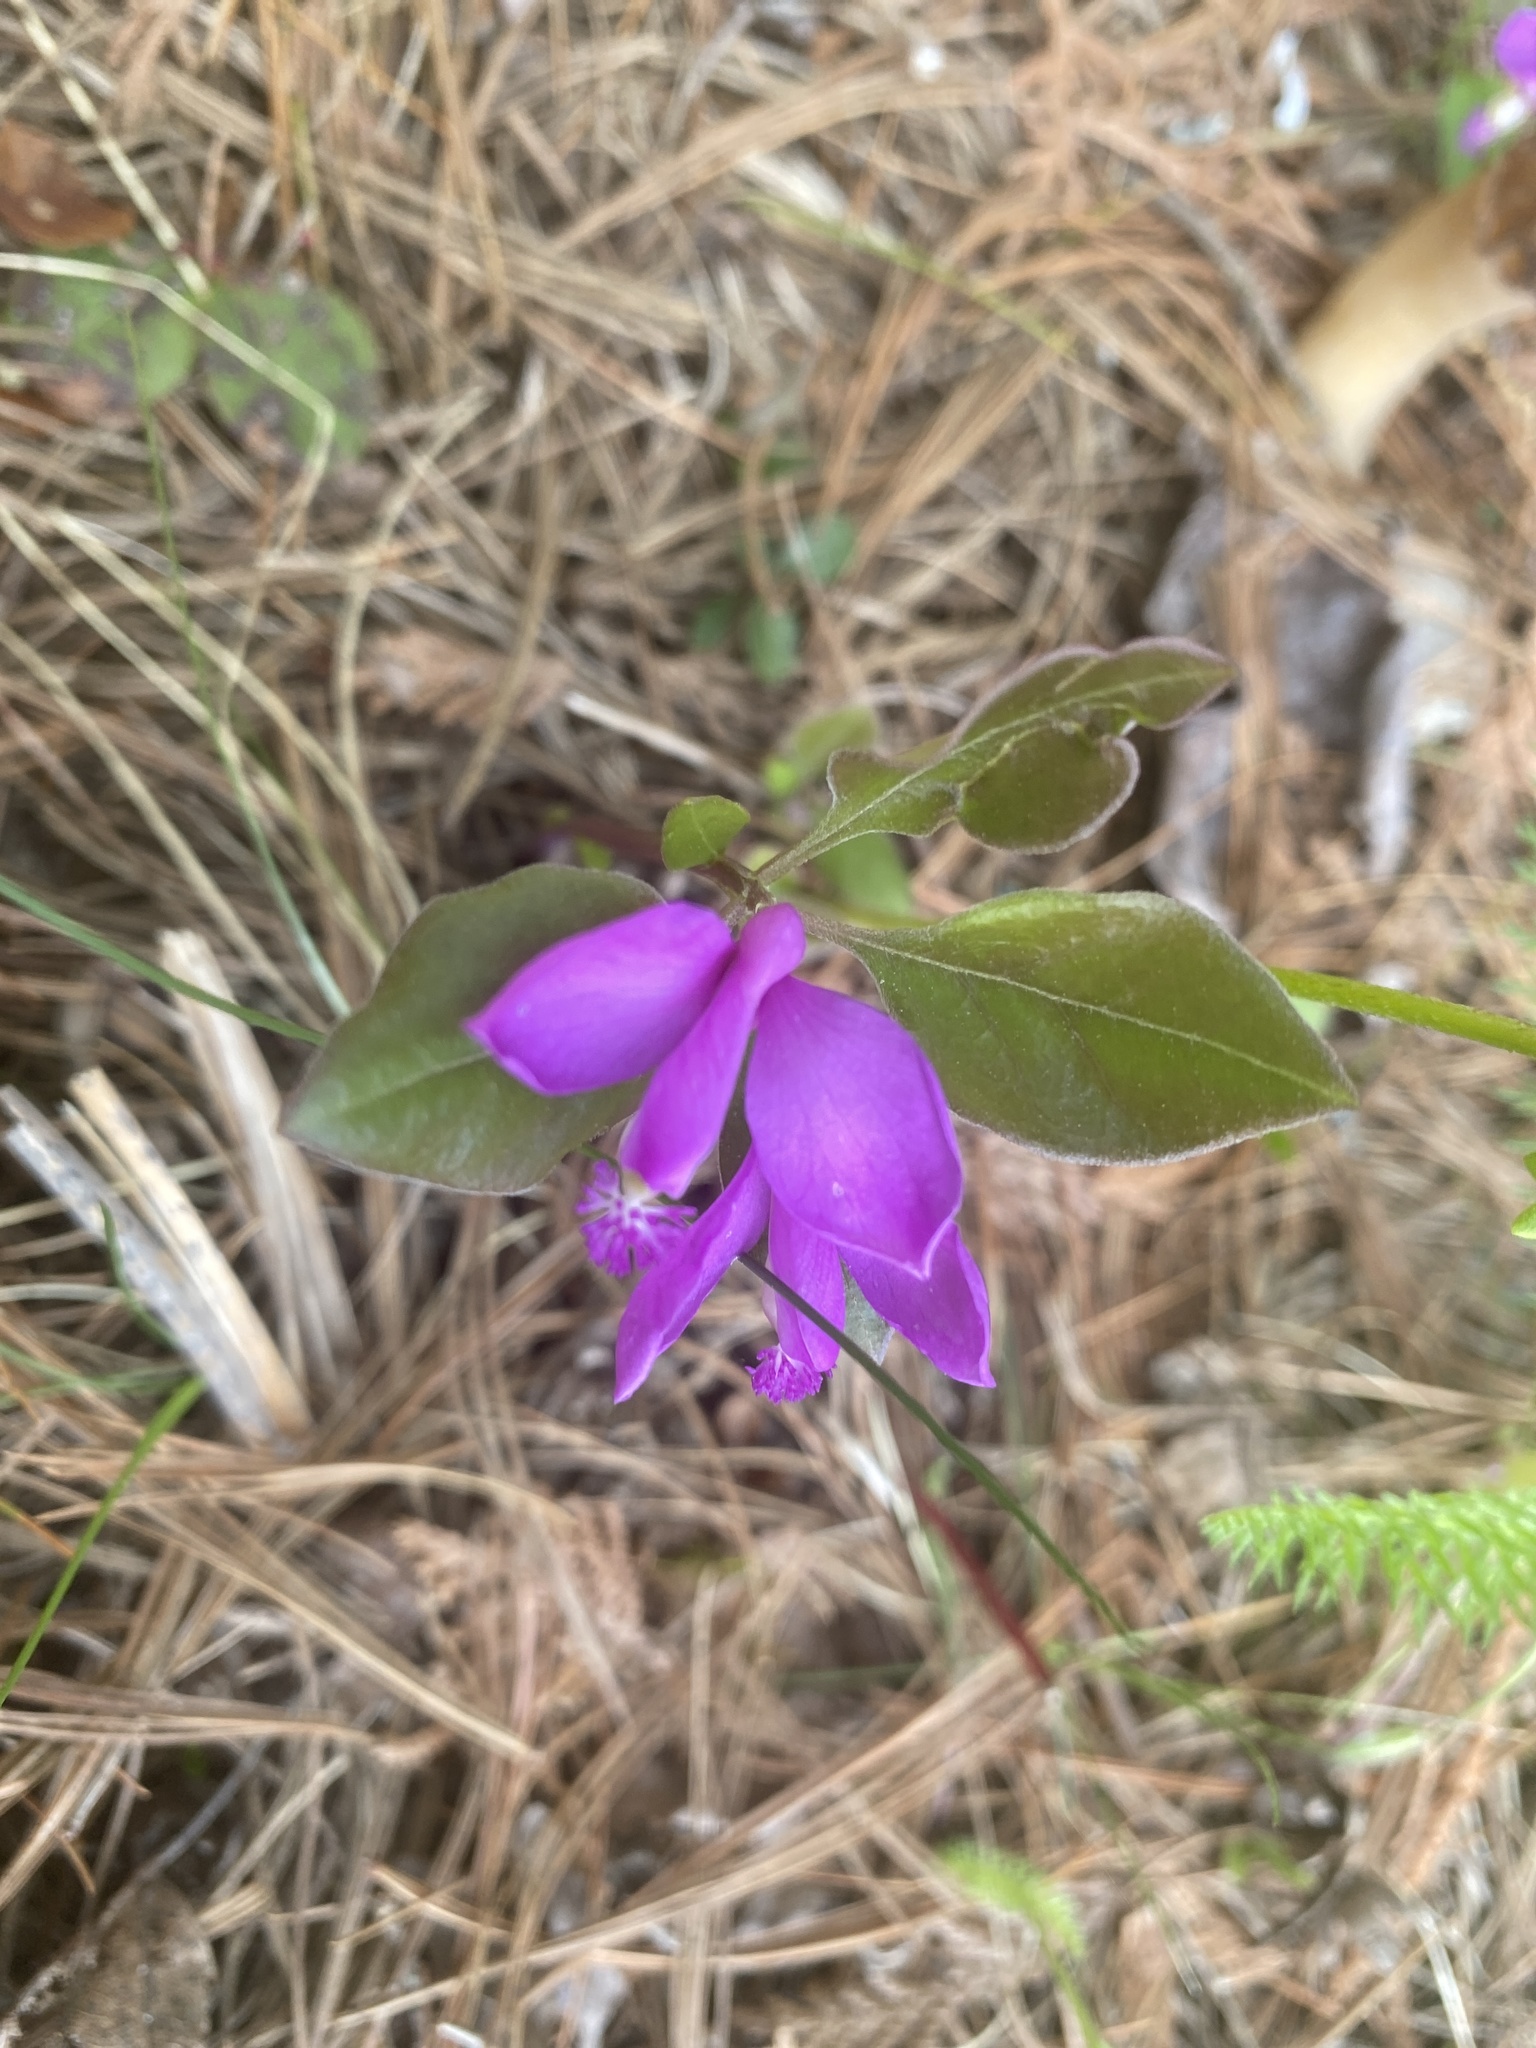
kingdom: Plantae
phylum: Tracheophyta
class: Magnoliopsida
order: Fabales
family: Polygalaceae
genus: Polygaloides
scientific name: Polygaloides paucifolia
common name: Bird-on-the-wing
